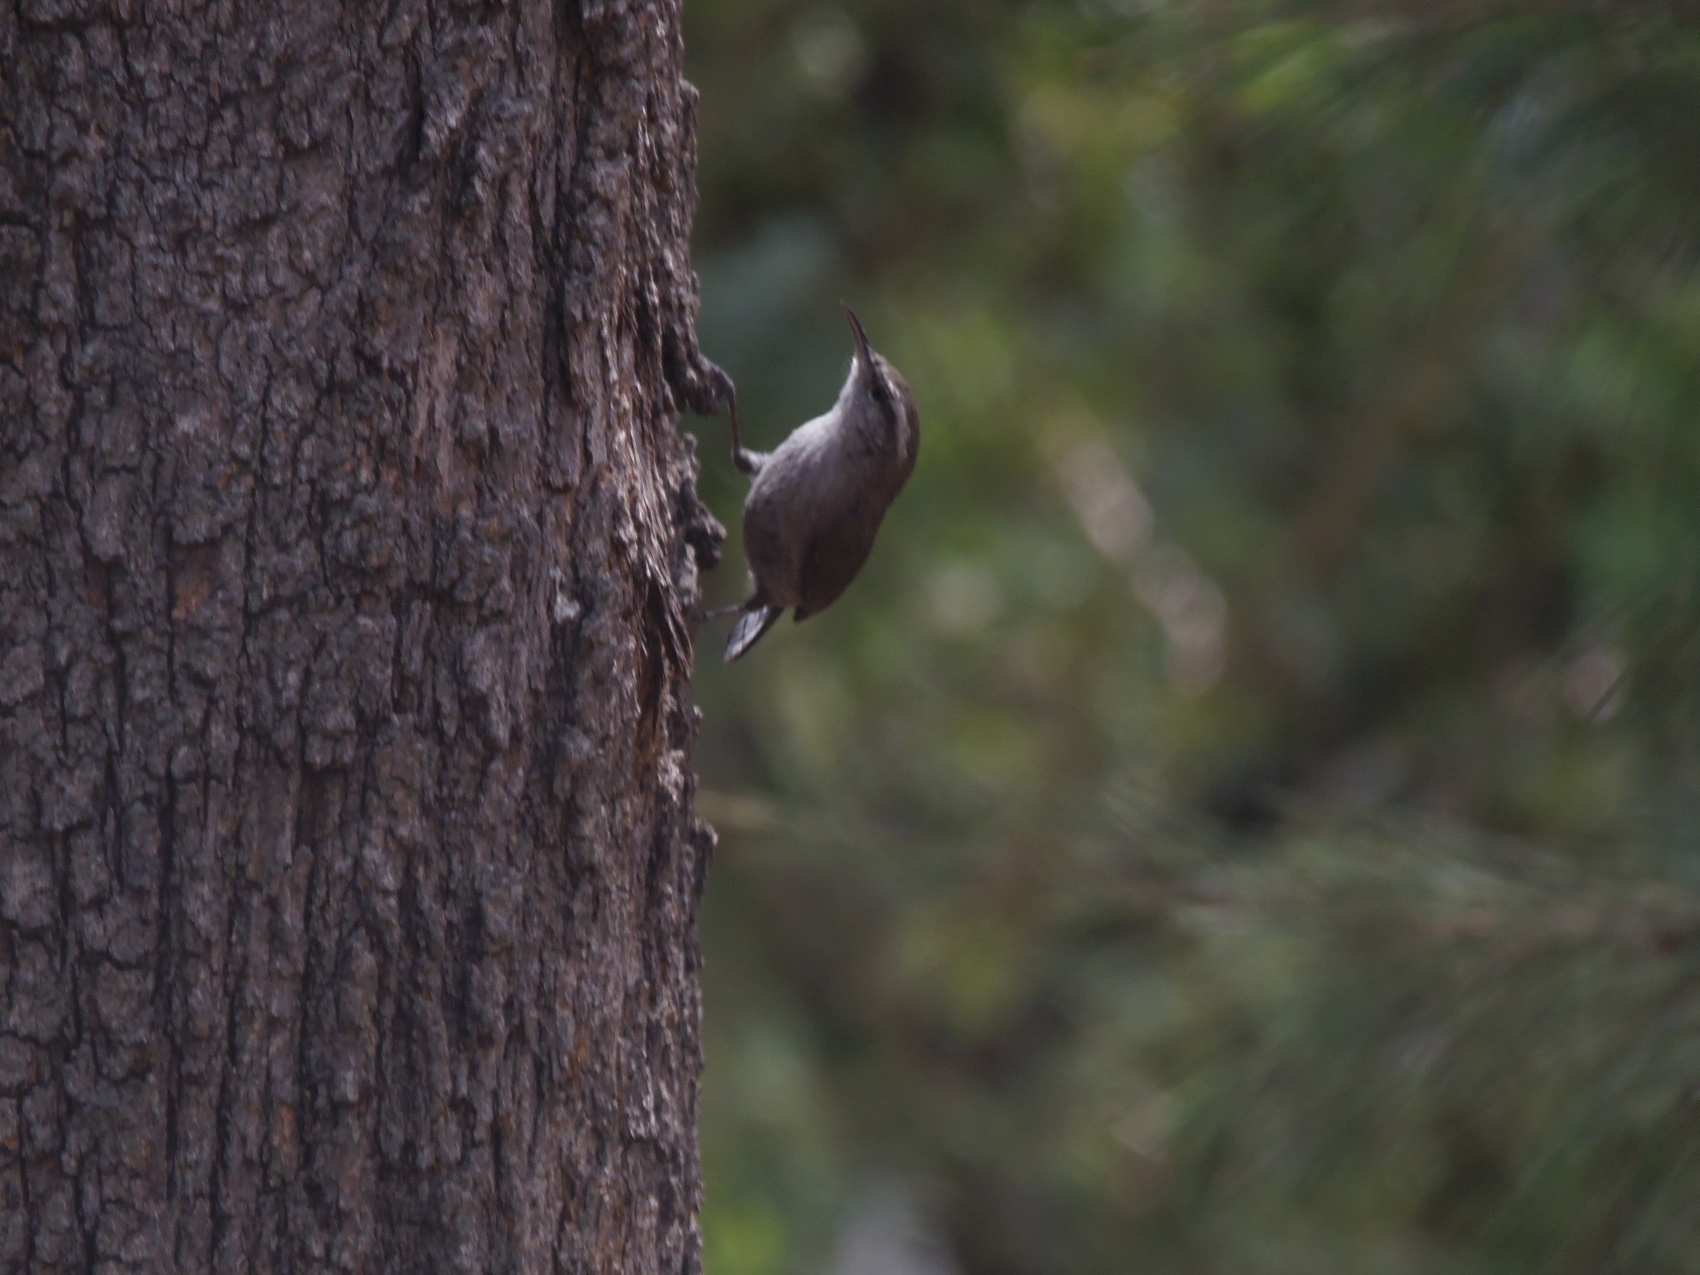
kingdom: Animalia
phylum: Chordata
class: Aves
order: Passeriformes
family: Troglodytidae
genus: Thryomanes
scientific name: Thryomanes bewickii
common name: Bewick's wren
